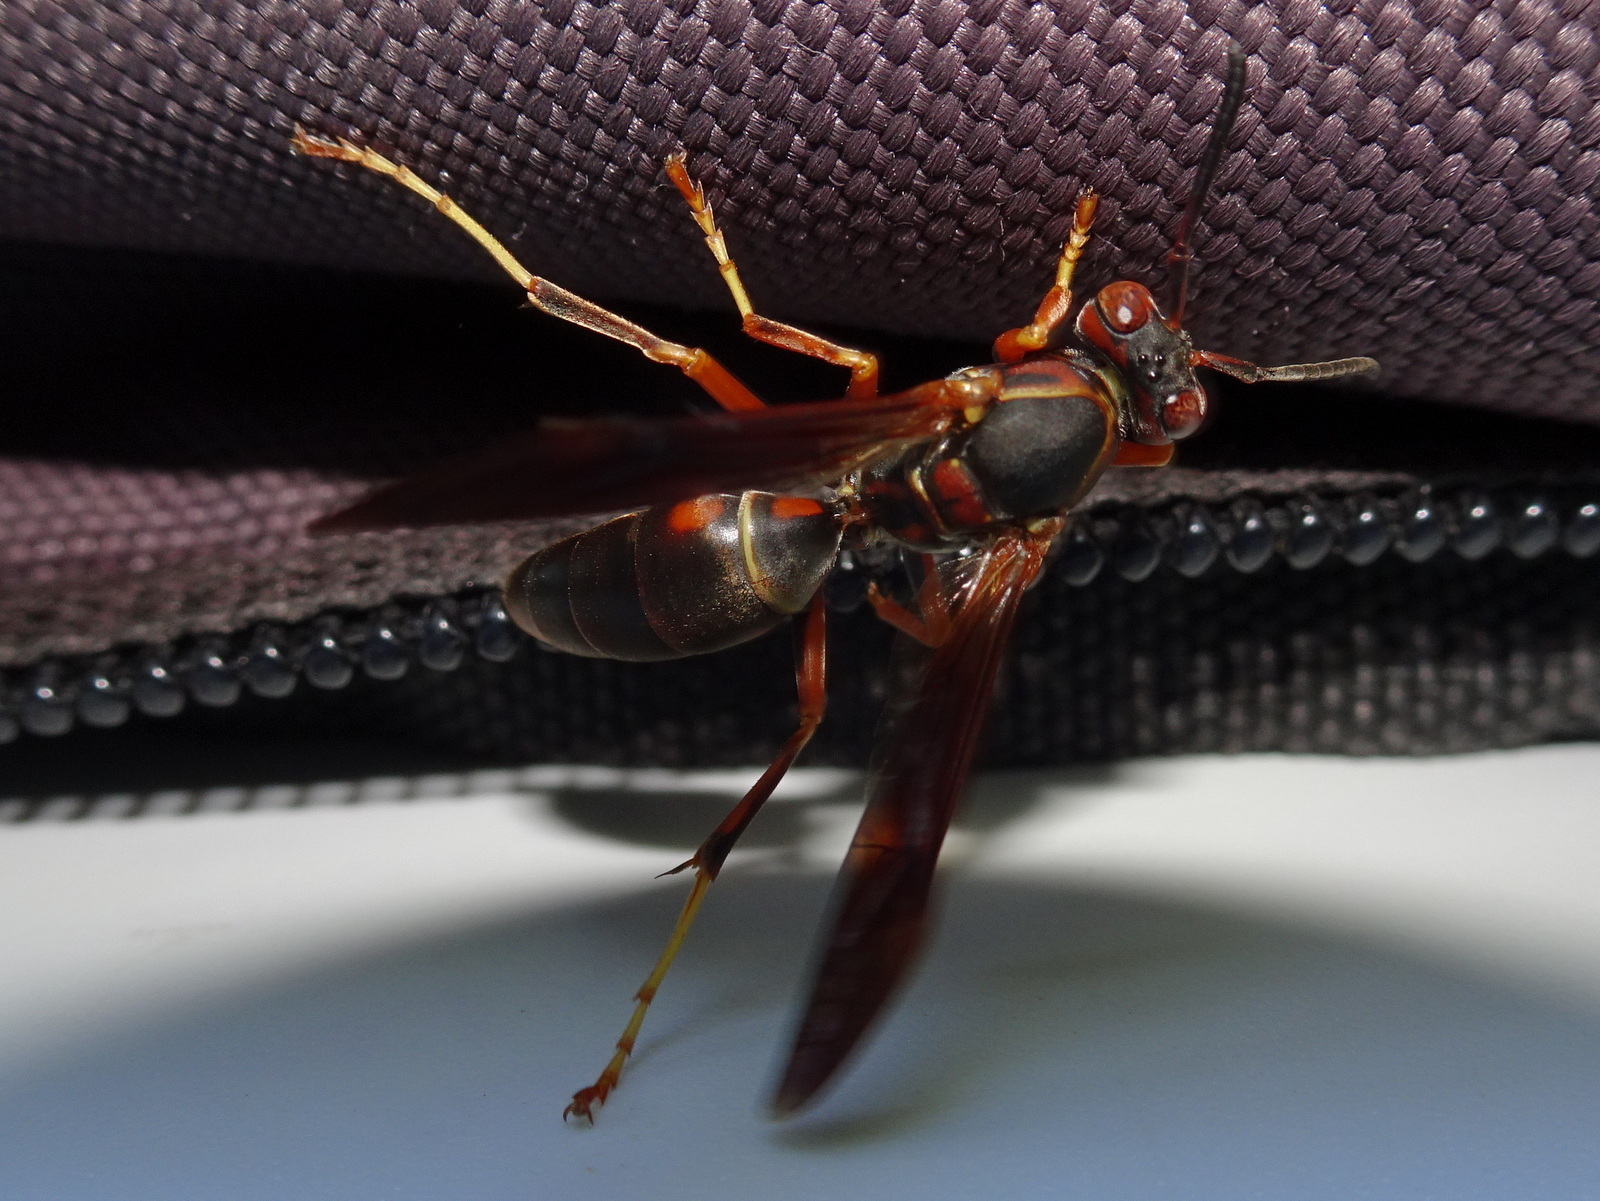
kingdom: Animalia
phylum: Arthropoda
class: Insecta
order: Hymenoptera
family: Eumenidae
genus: Polistes
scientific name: Polistes fuscatus
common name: Dark paper wasp
